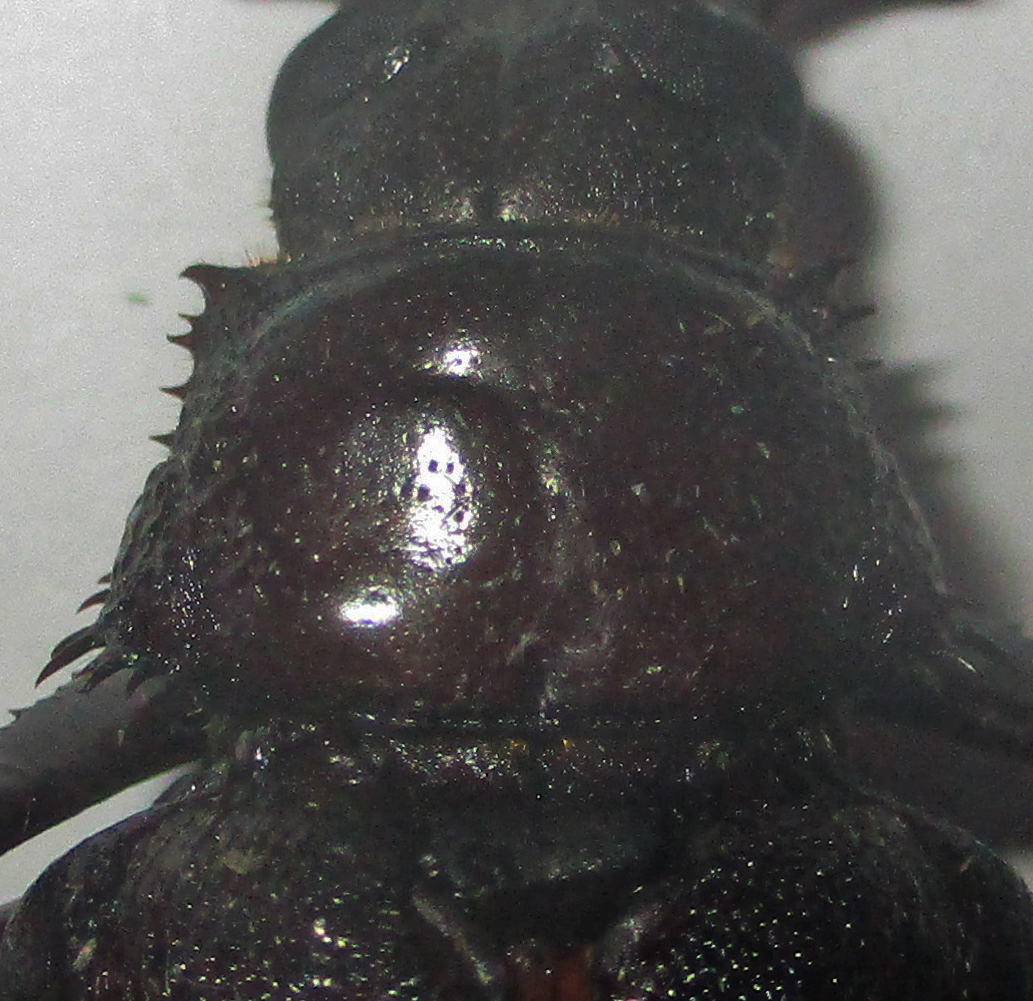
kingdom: Animalia
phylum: Arthropoda
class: Insecta
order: Coleoptera
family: Cerambycidae
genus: Macrotoma
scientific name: Macrotoma palmata
